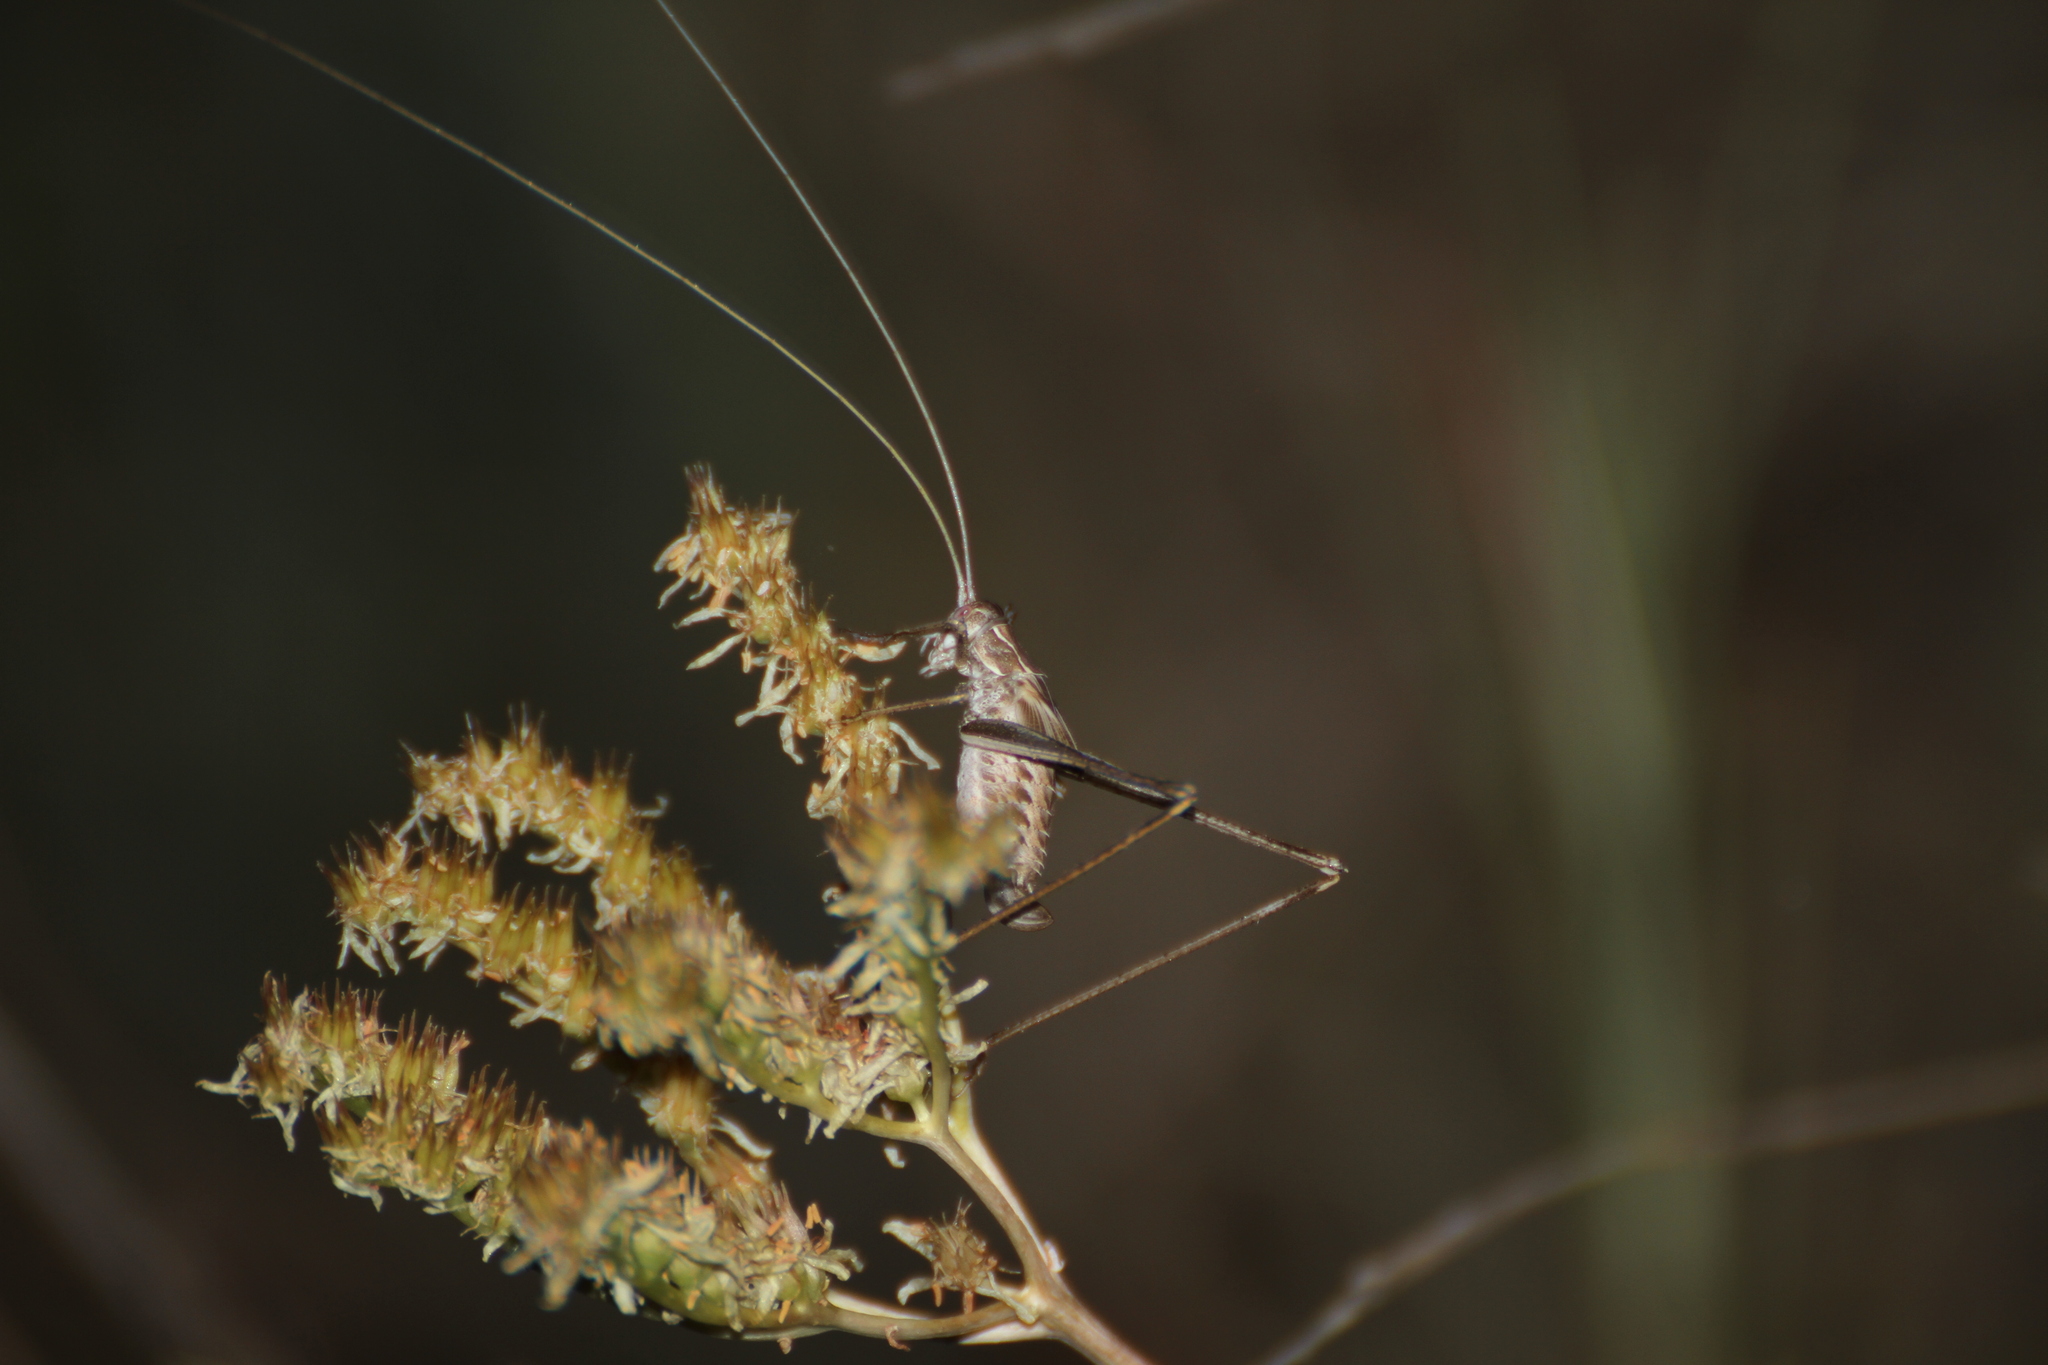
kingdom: Animalia
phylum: Arthropoda
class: Insecta
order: Orthoptera
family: Tettigoniidae
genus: Tylopsis
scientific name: Tylopsis lilifolia
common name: Lily bush-cricket
